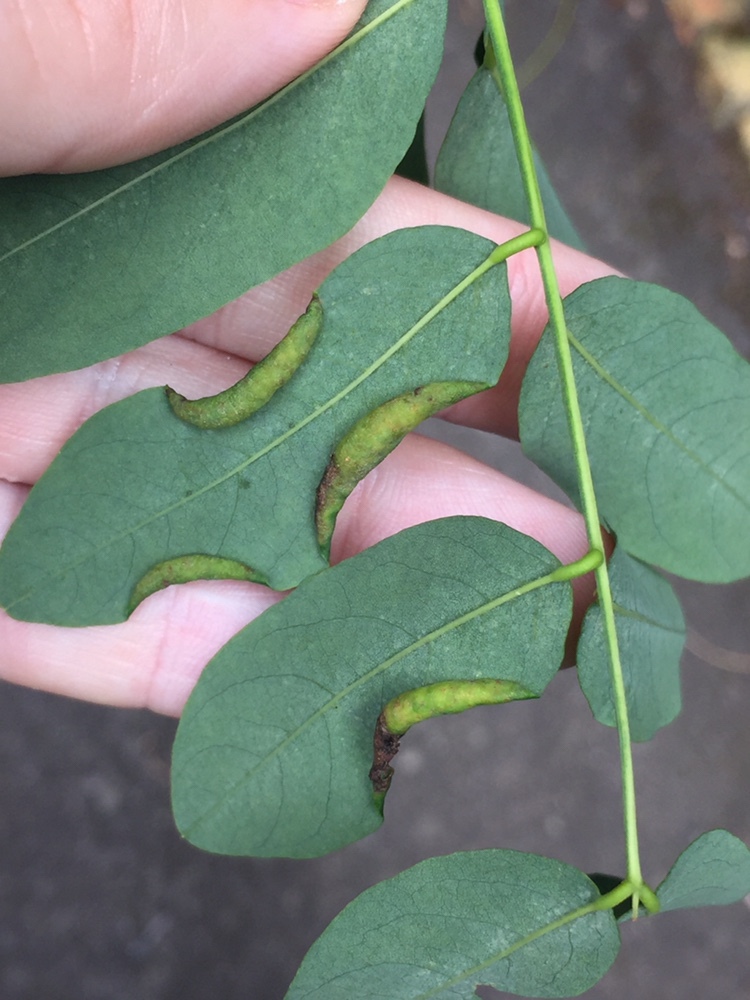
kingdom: Animalia
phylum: Arthropoda
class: Insecta
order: Diptera
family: Cecidomyiidae
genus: Obolodiplosis
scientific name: Obolodiplosis robiniae
